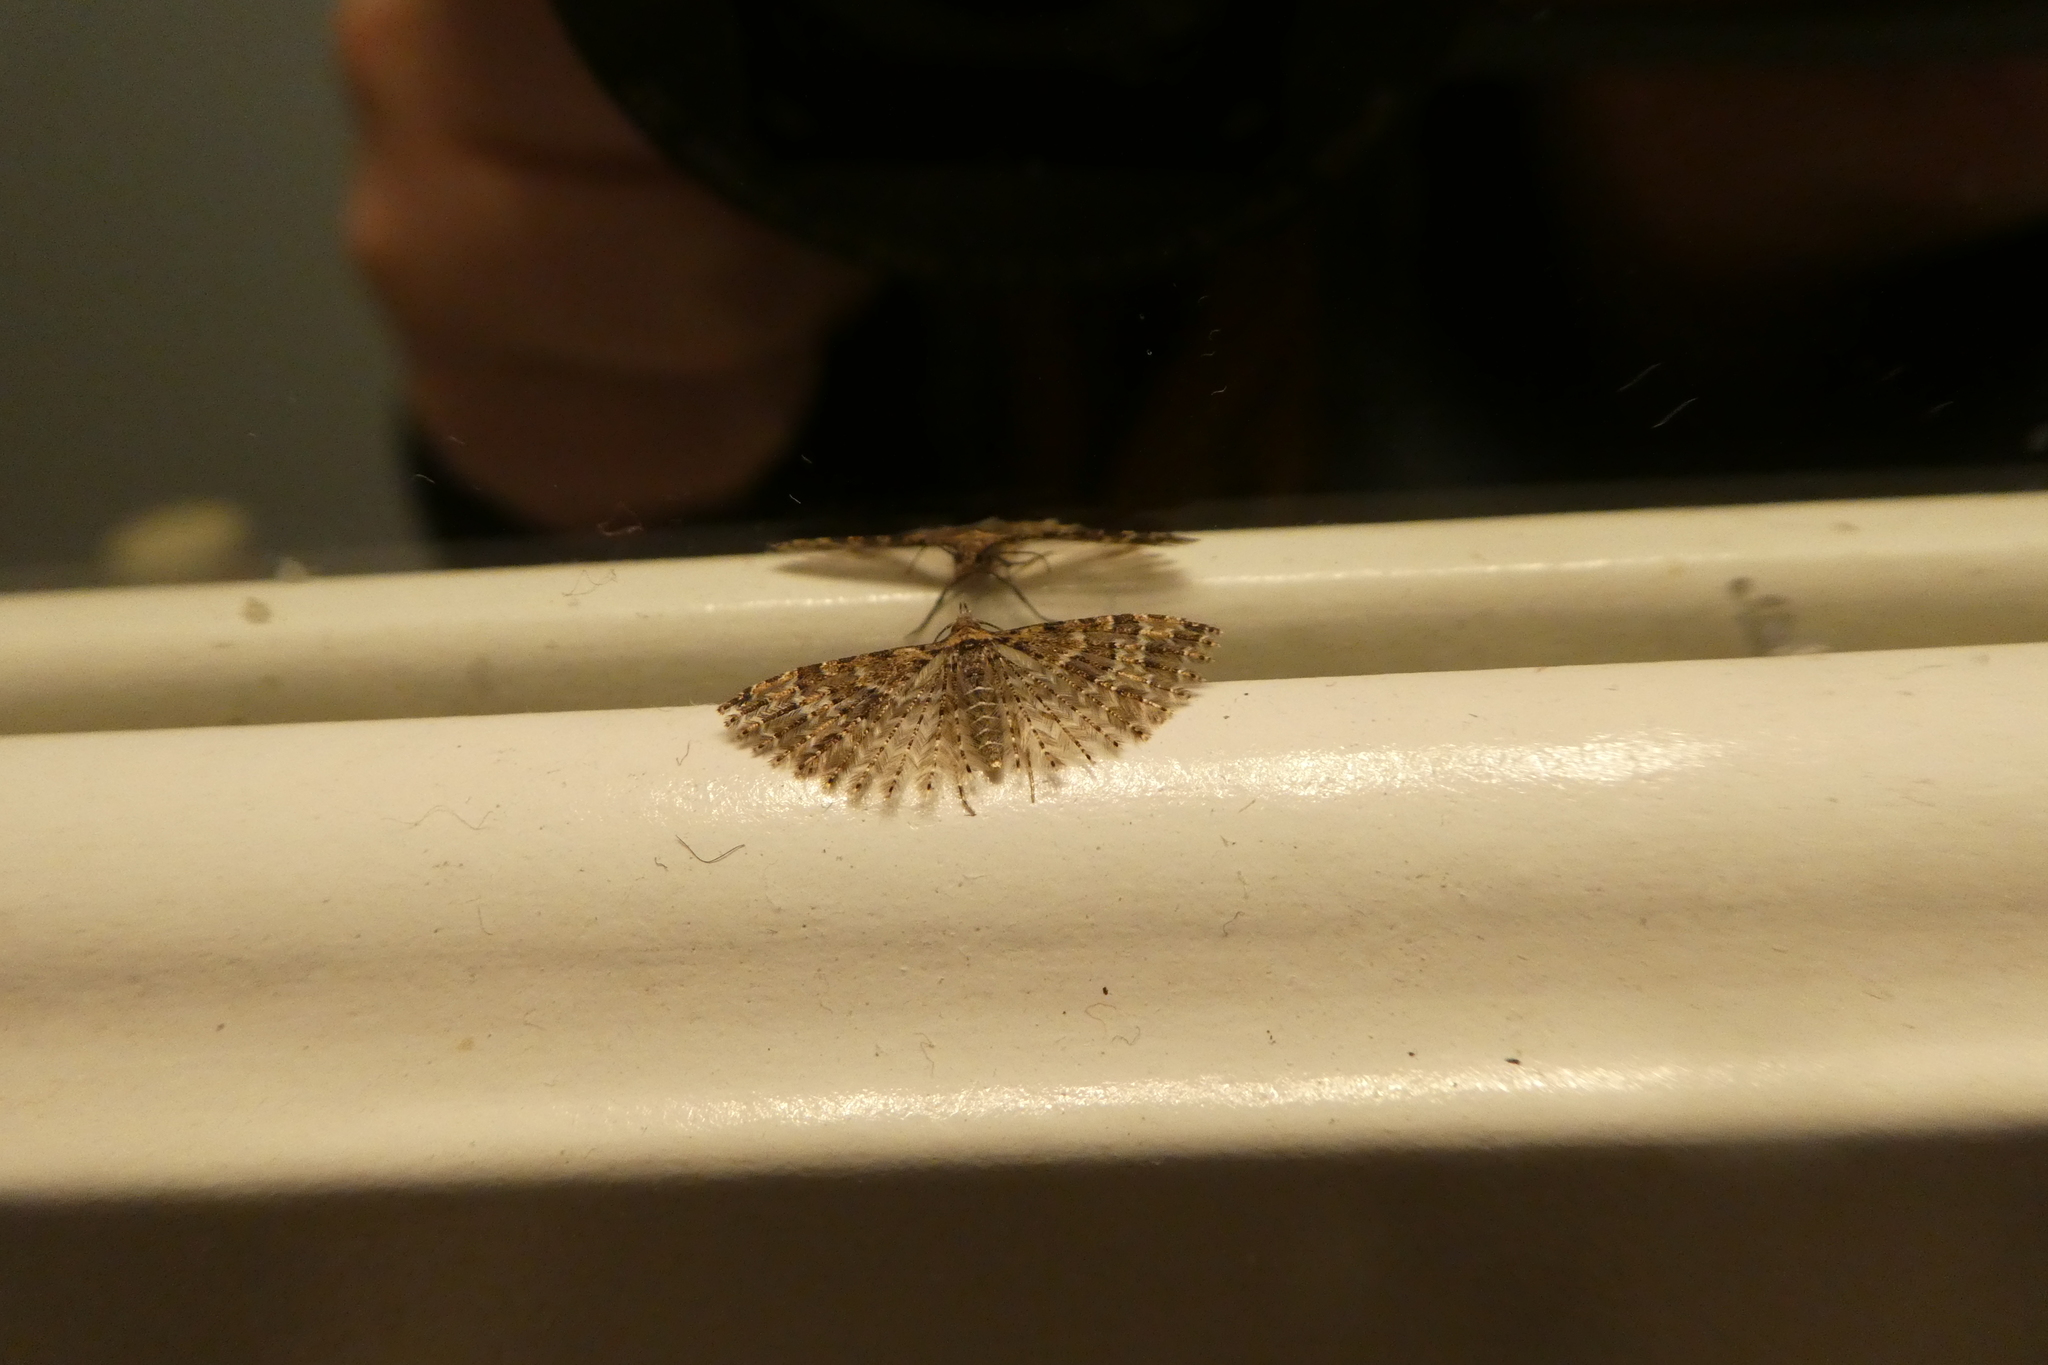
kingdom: Animalia
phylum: Arthropoda
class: Insecta
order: Lepidoptera
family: Alucitidae
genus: Alucita
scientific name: Alucita montana
